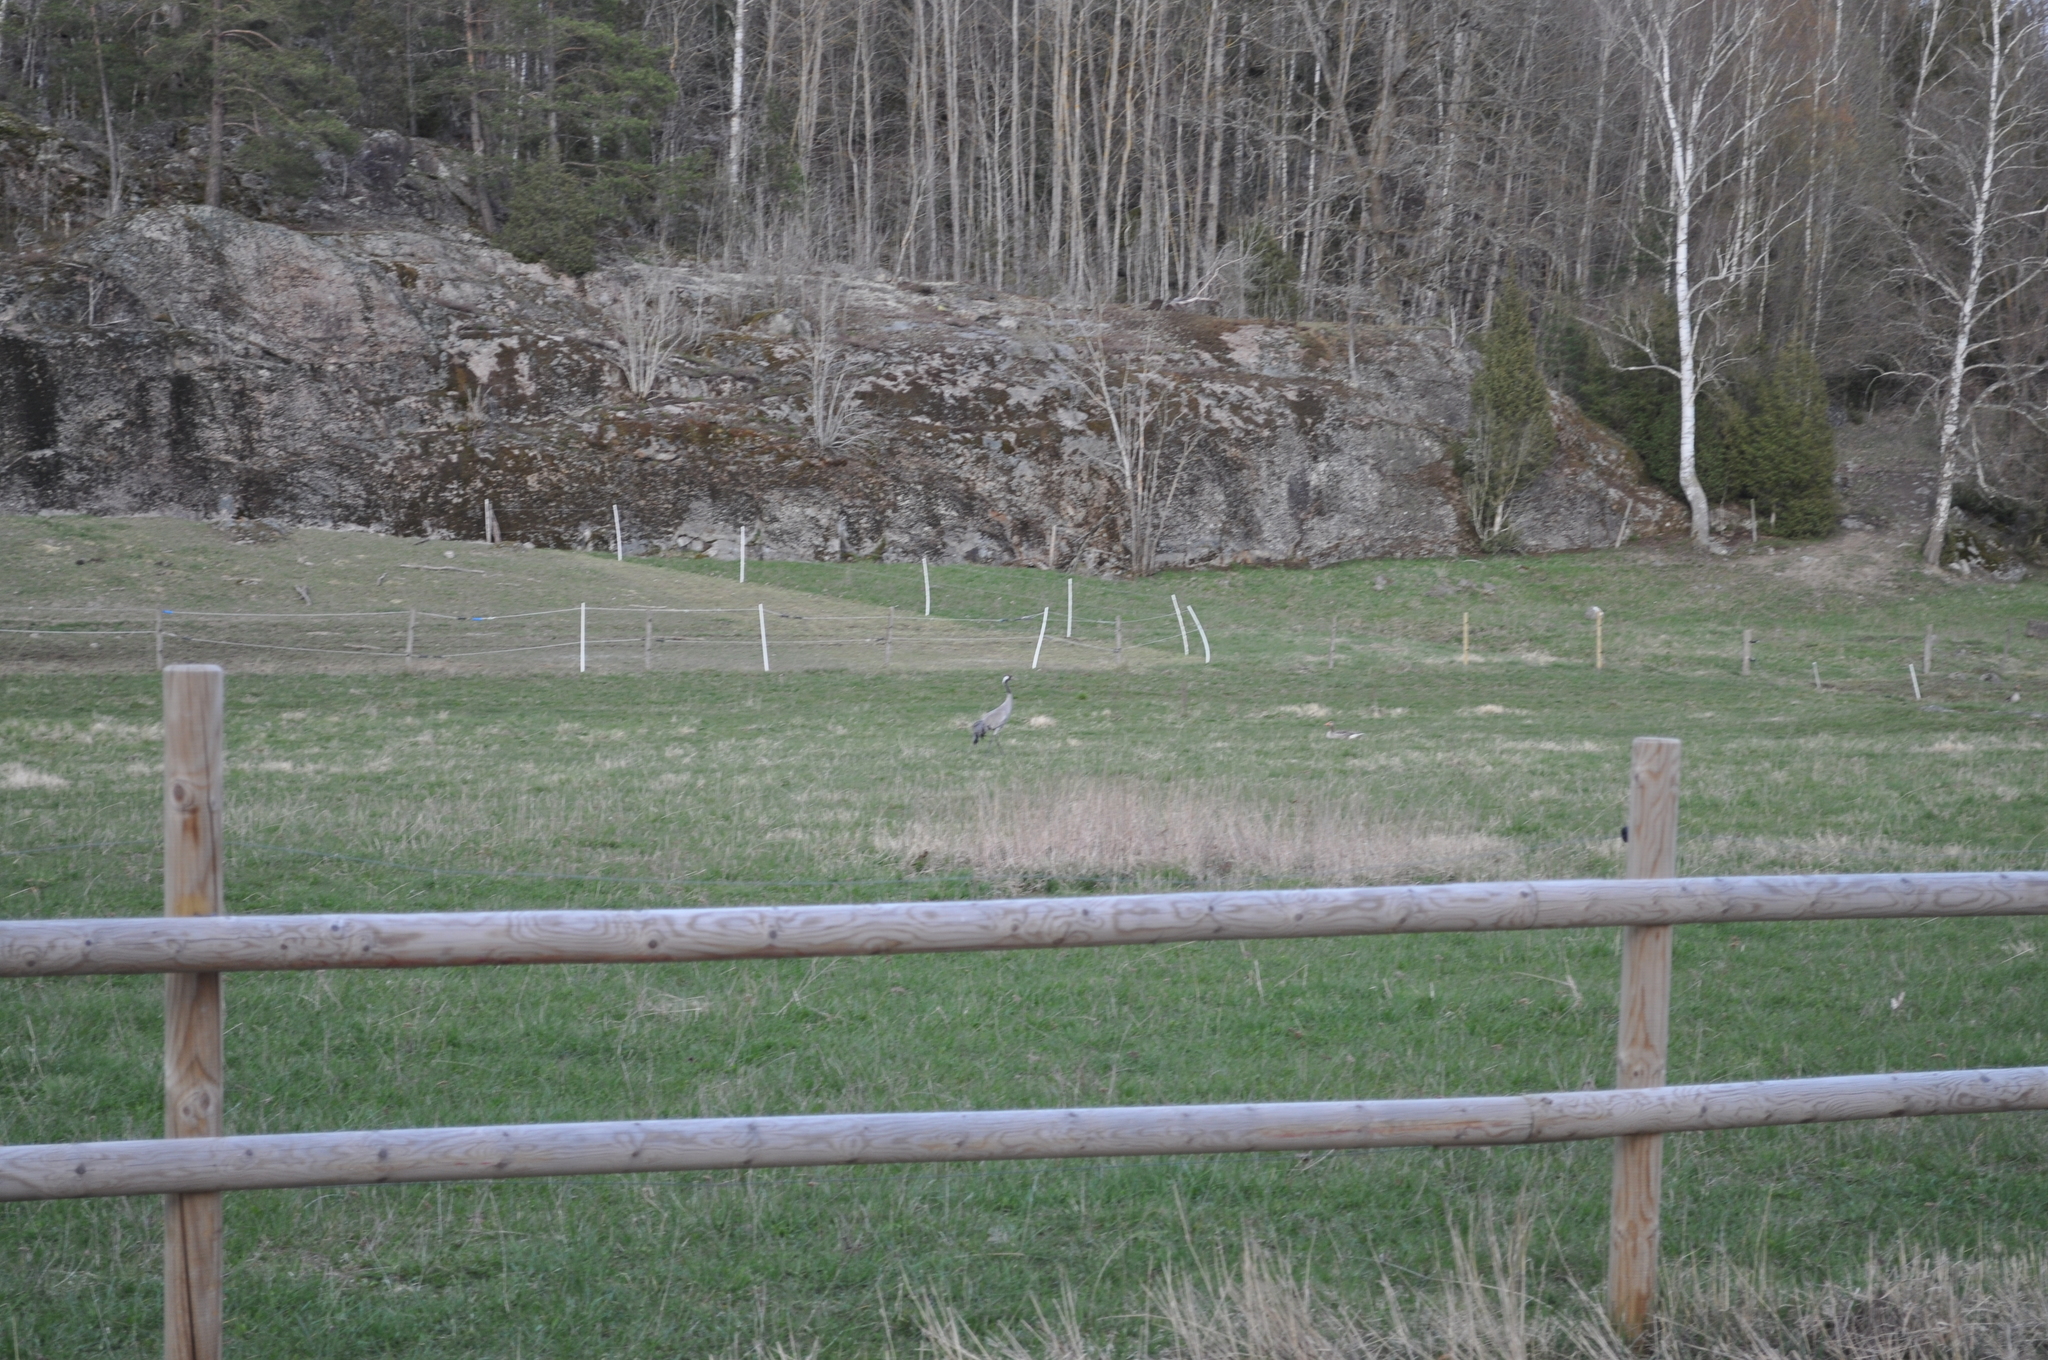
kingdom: Animalia
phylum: Chordata
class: Aves
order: Gruiformes
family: Gruidae
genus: Grus
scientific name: Grus grus
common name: Common crane
